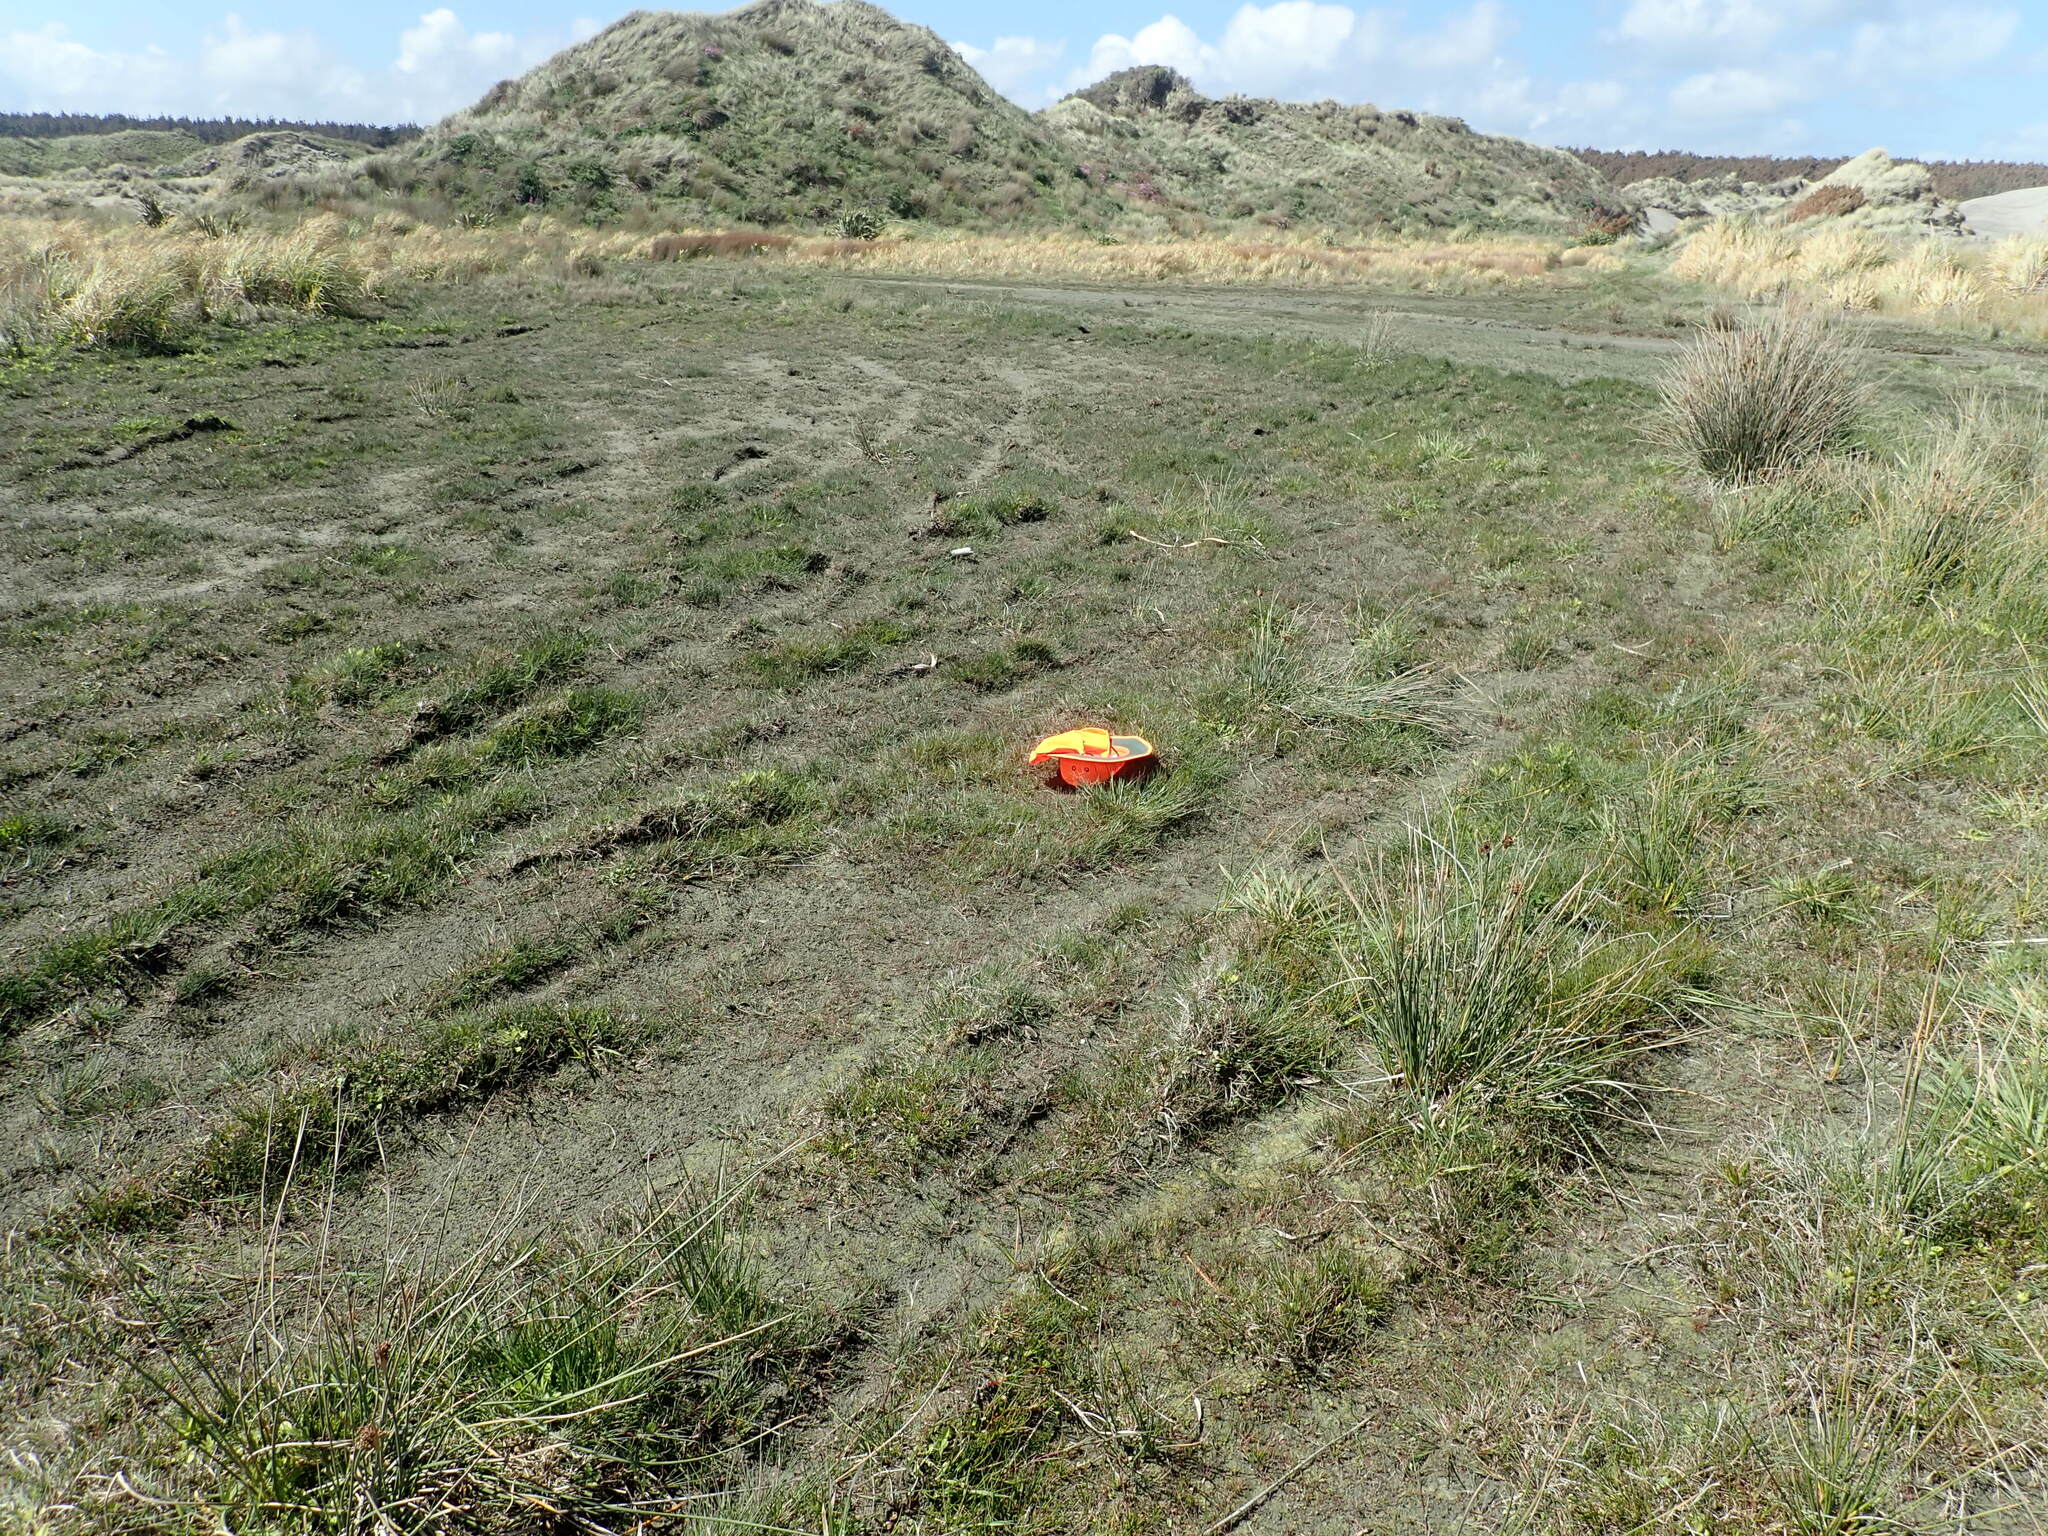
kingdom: Plantae
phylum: Tracheophyta
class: Magnoliopsida
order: Asterales
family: Goodeniaceae
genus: Goodenia
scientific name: Goodenia heenanii
